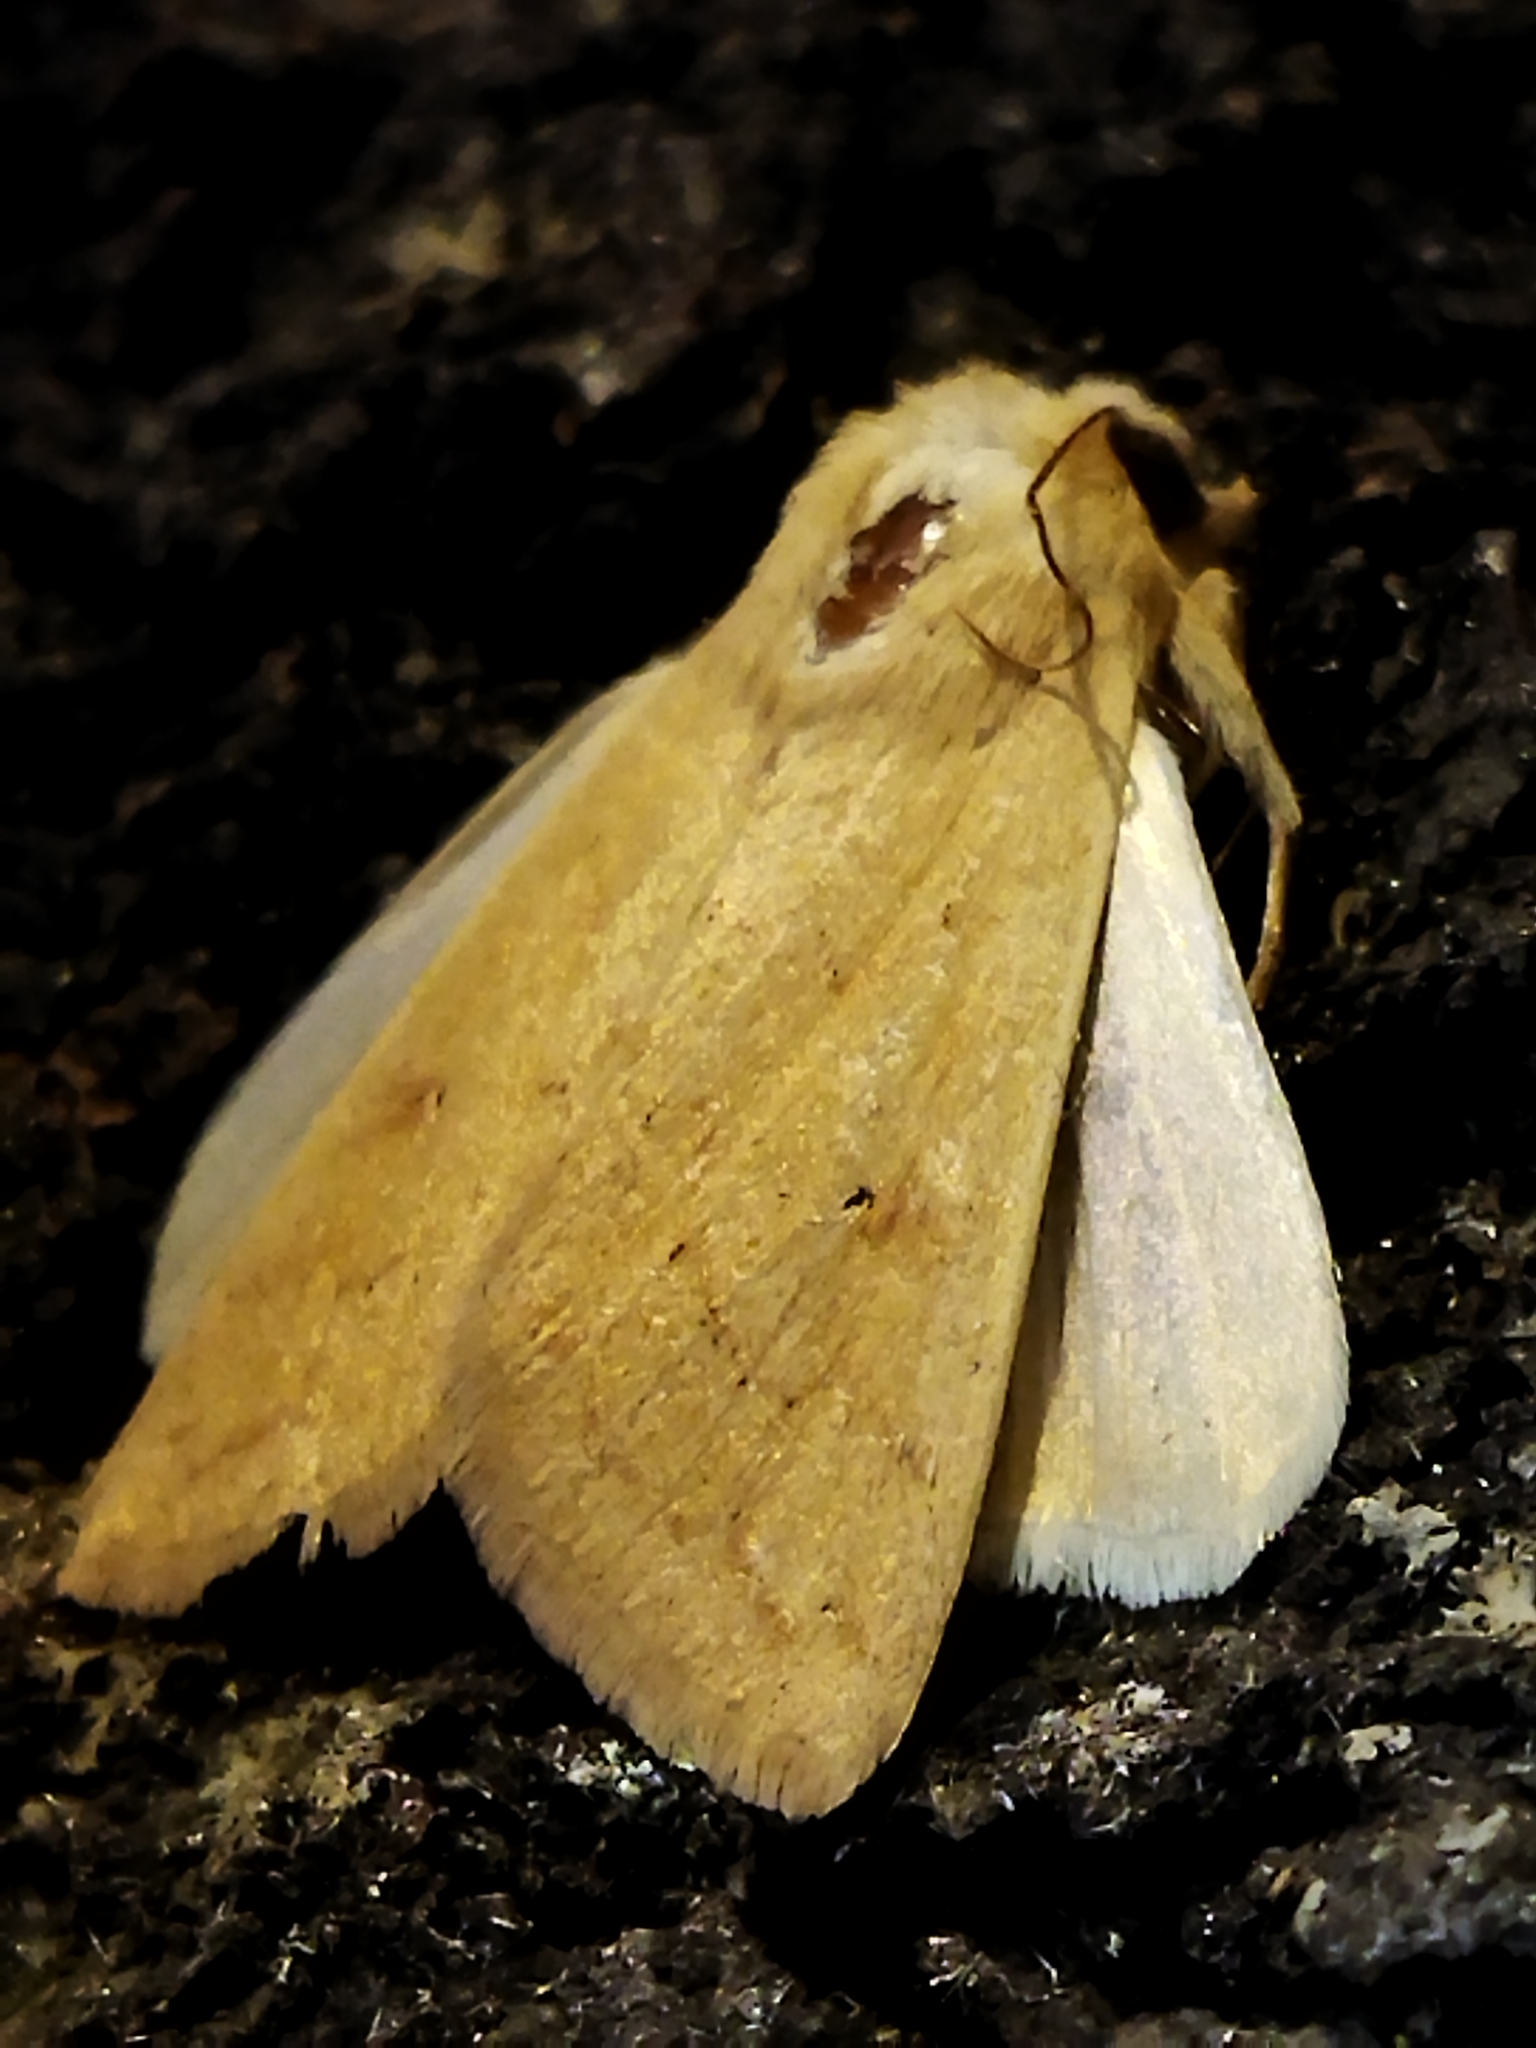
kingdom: Animalia
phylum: Arthropoda
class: Insecta
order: Lepidoptera
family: Noctuidae
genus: Mythimna
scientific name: Mythimna vitellina
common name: Delicate
